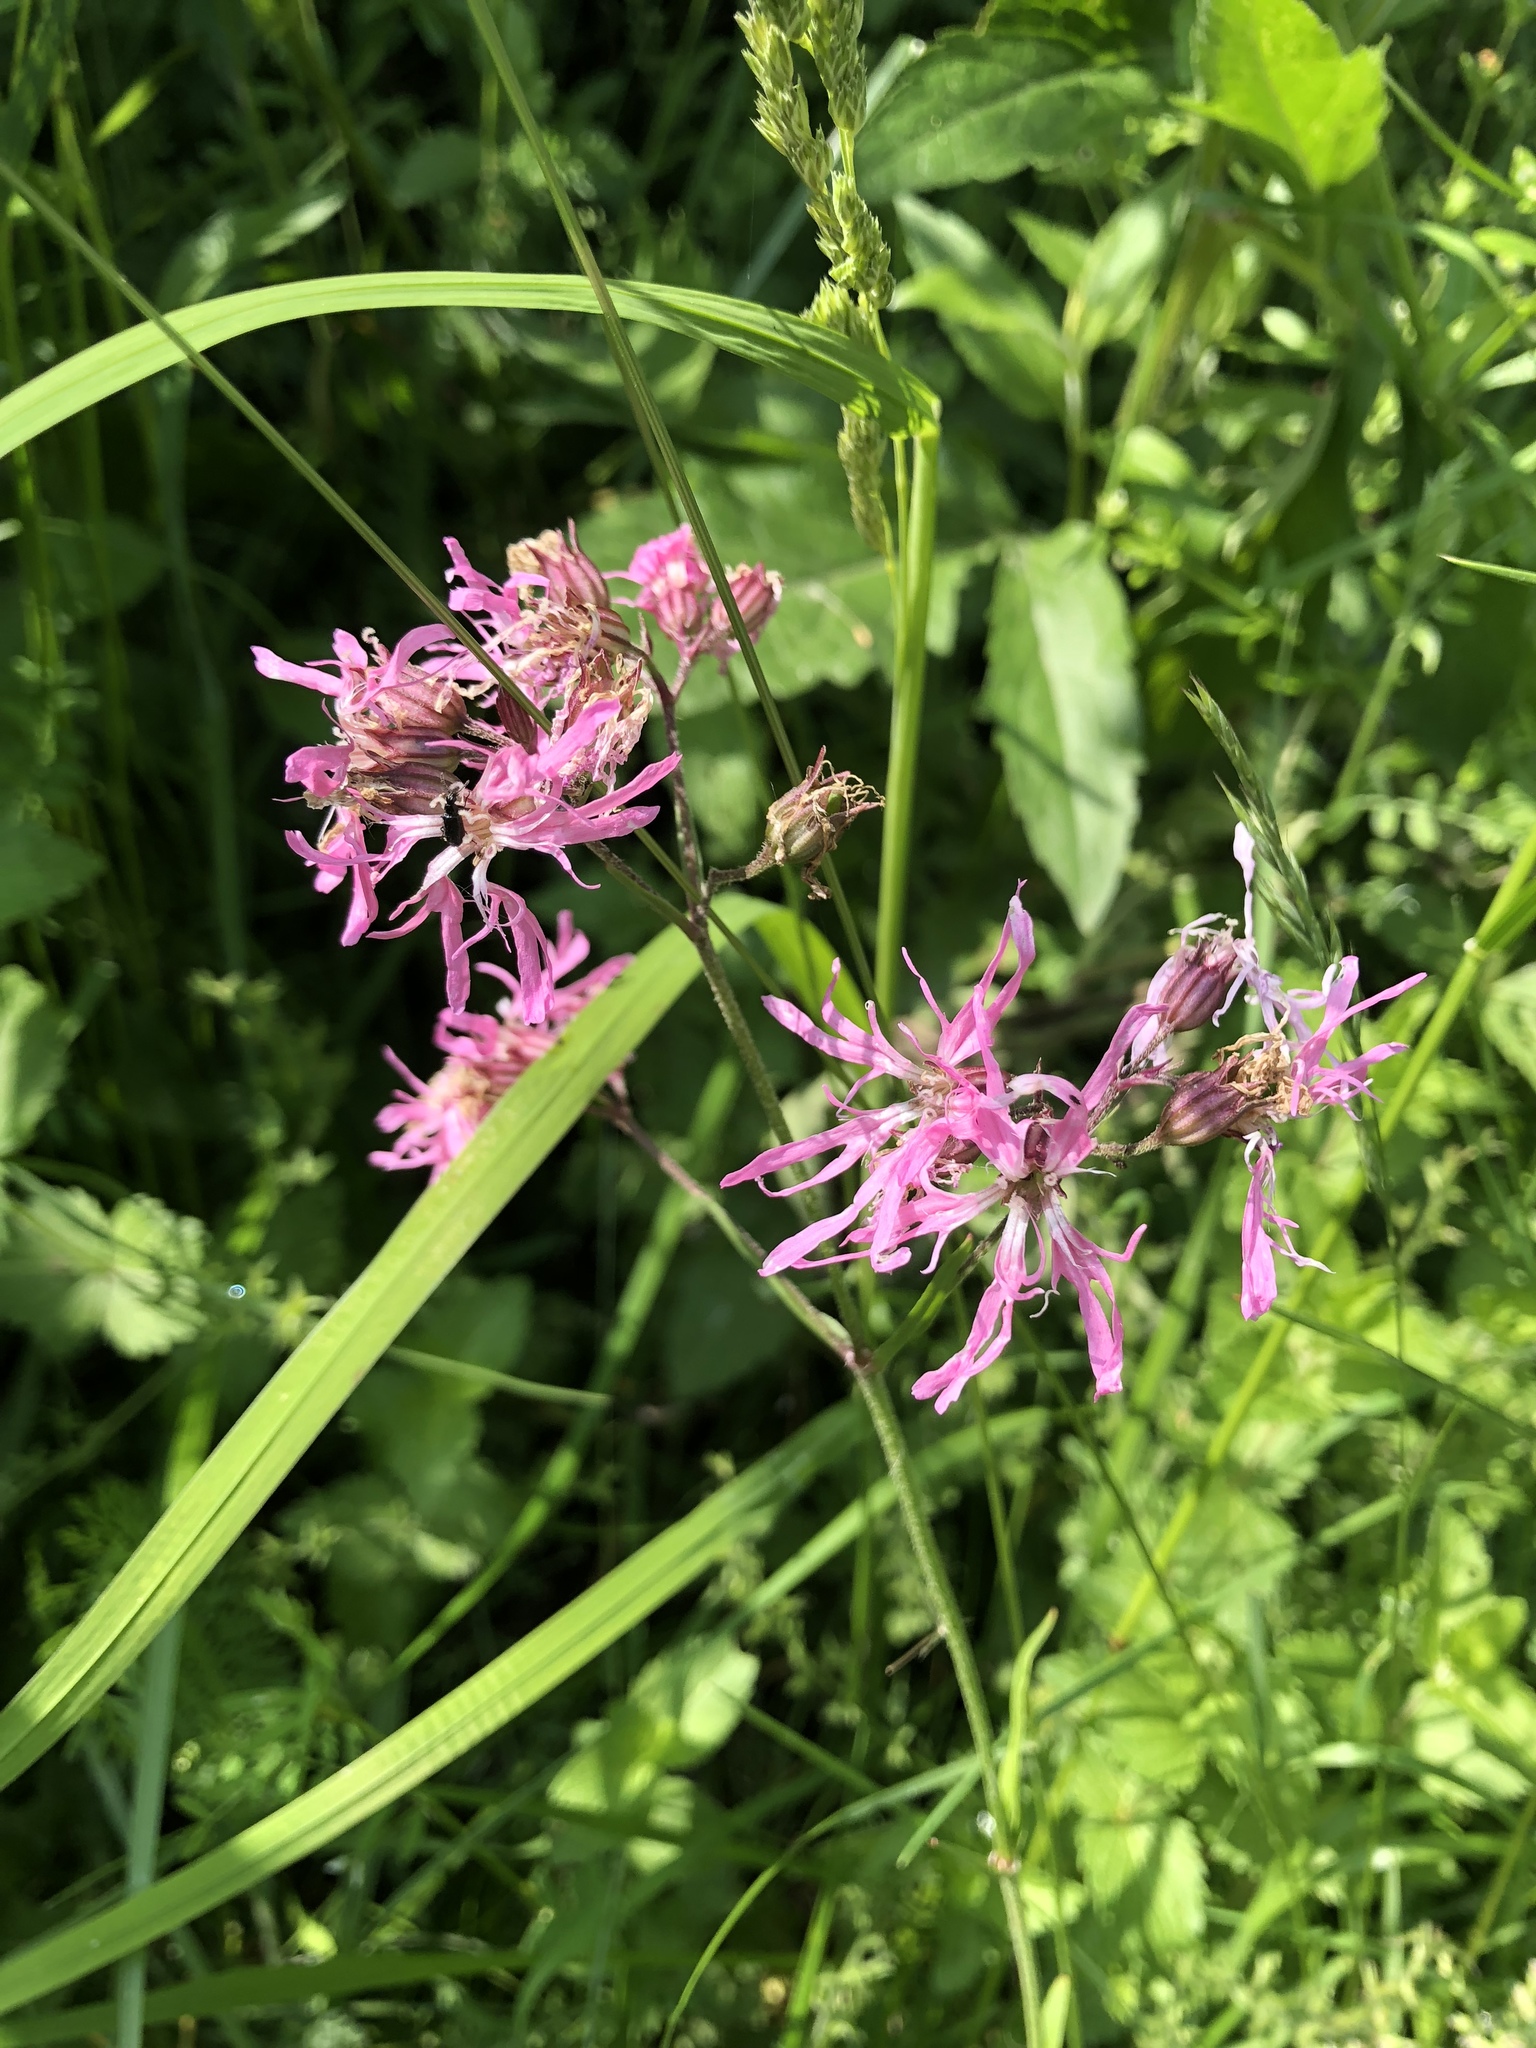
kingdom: Plantae
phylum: Tracheophyta
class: Magnoliopsida
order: Caryophyllales
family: Caryophyllaceae
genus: Silene
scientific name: Silene flos-cuculi
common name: Ragged-robin
